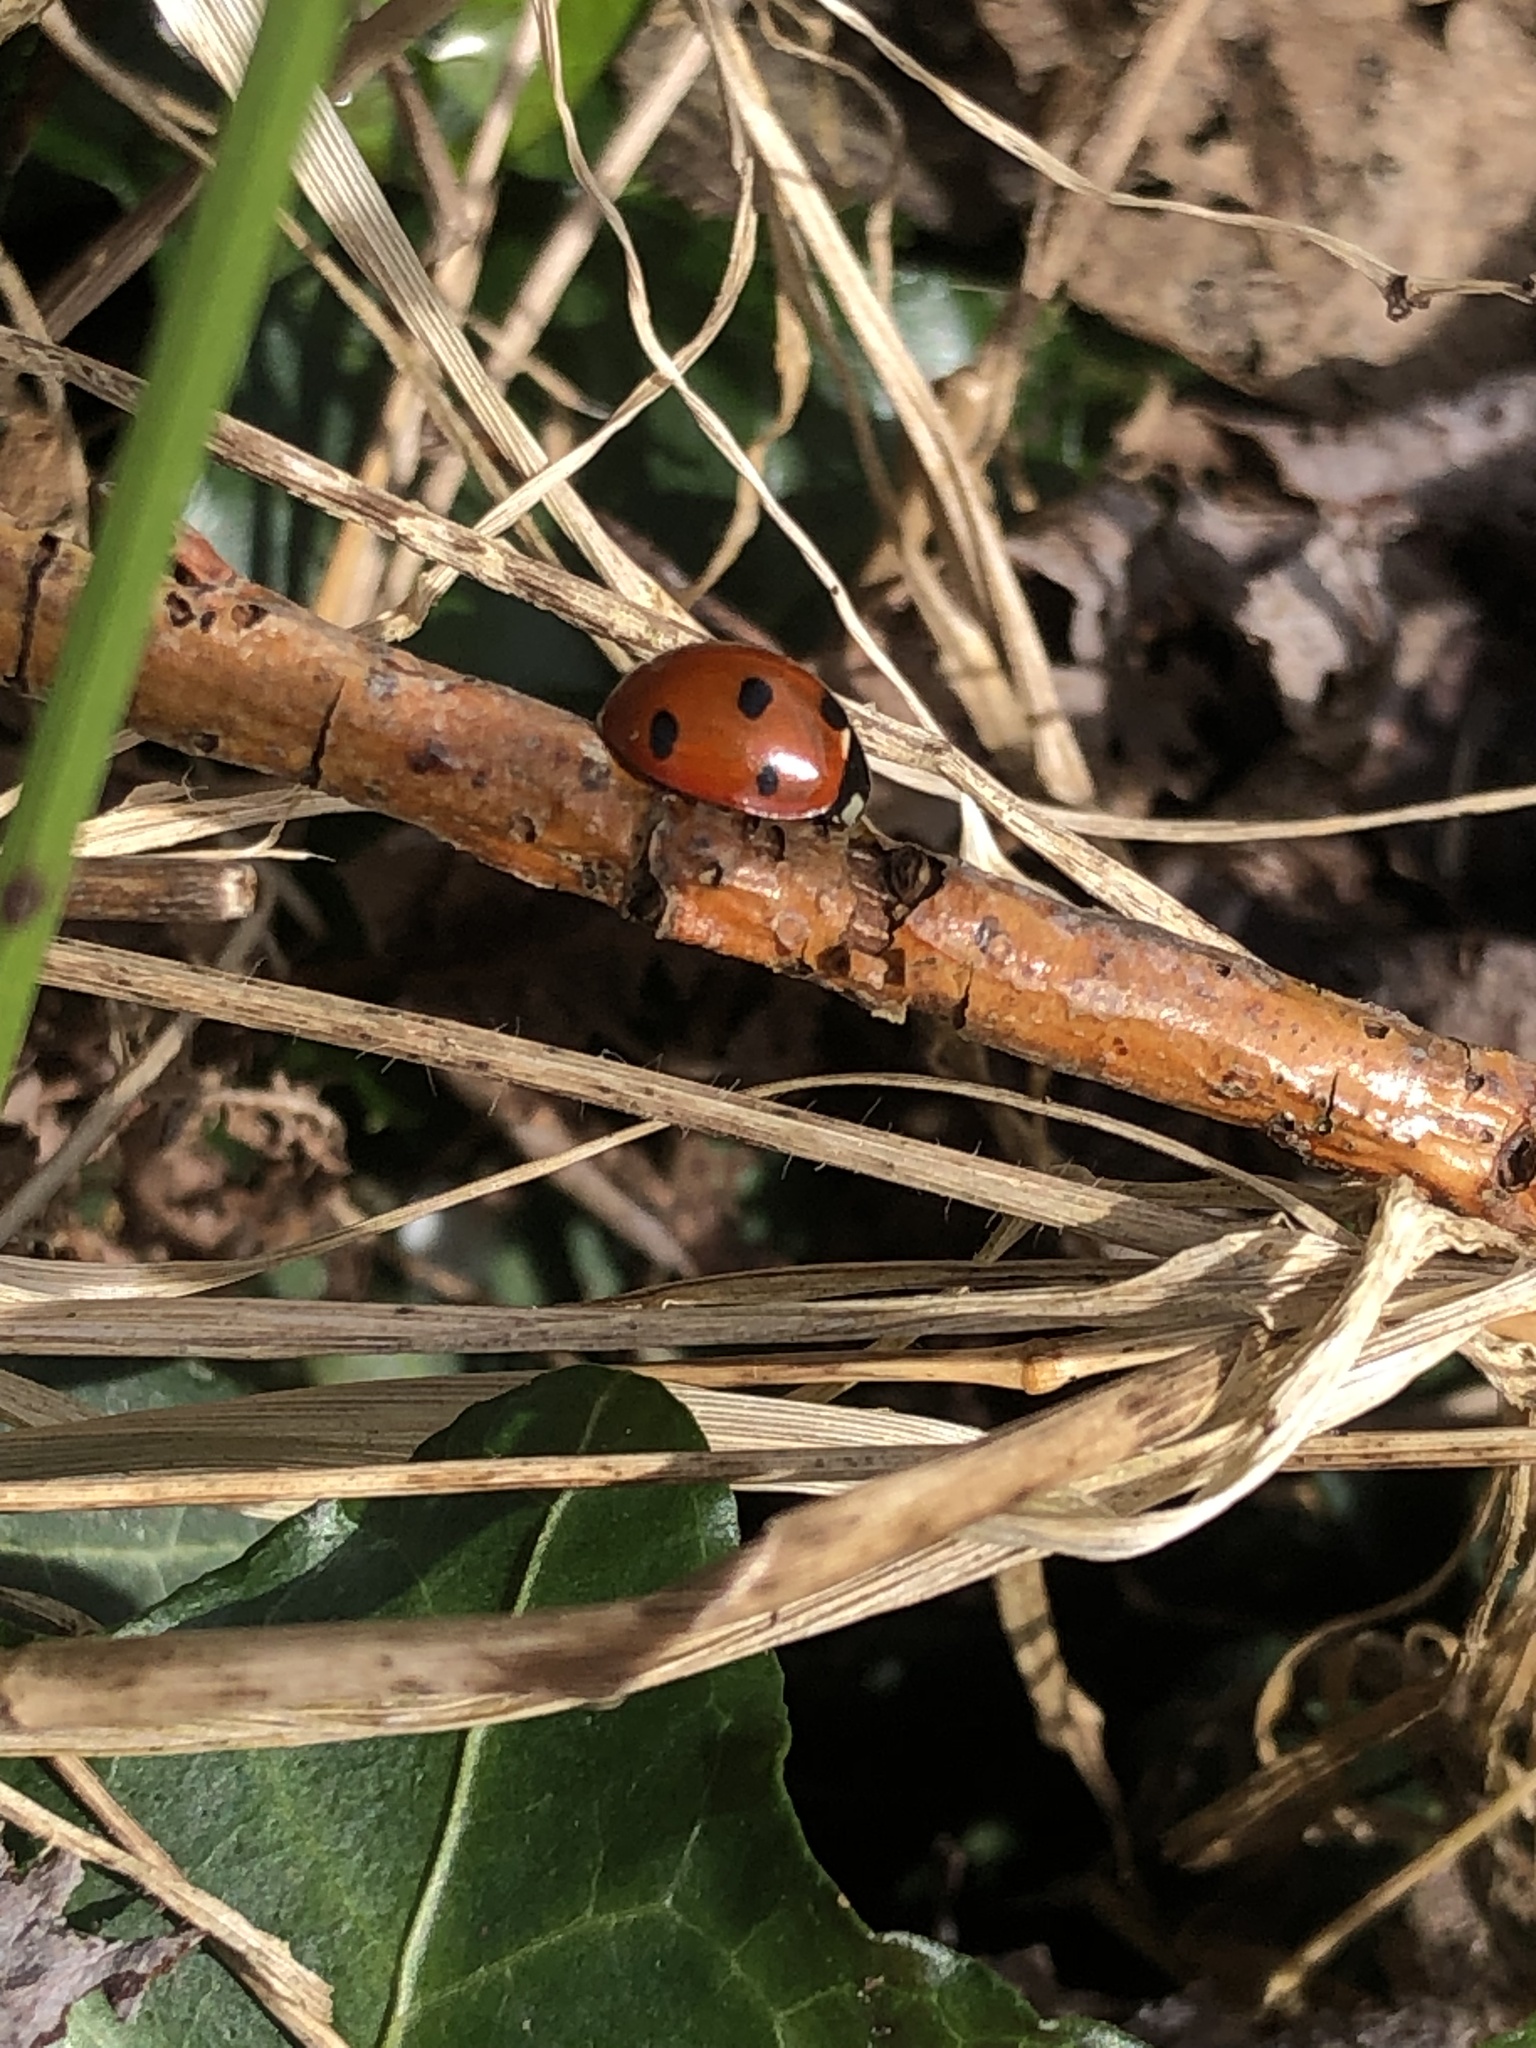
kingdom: Animalia
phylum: Arthropoda
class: Insecta
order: Coleoptera
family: Coccinellidae
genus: Coccinella
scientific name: Coccinella septempunctata
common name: Sevenspotted lady beetle
